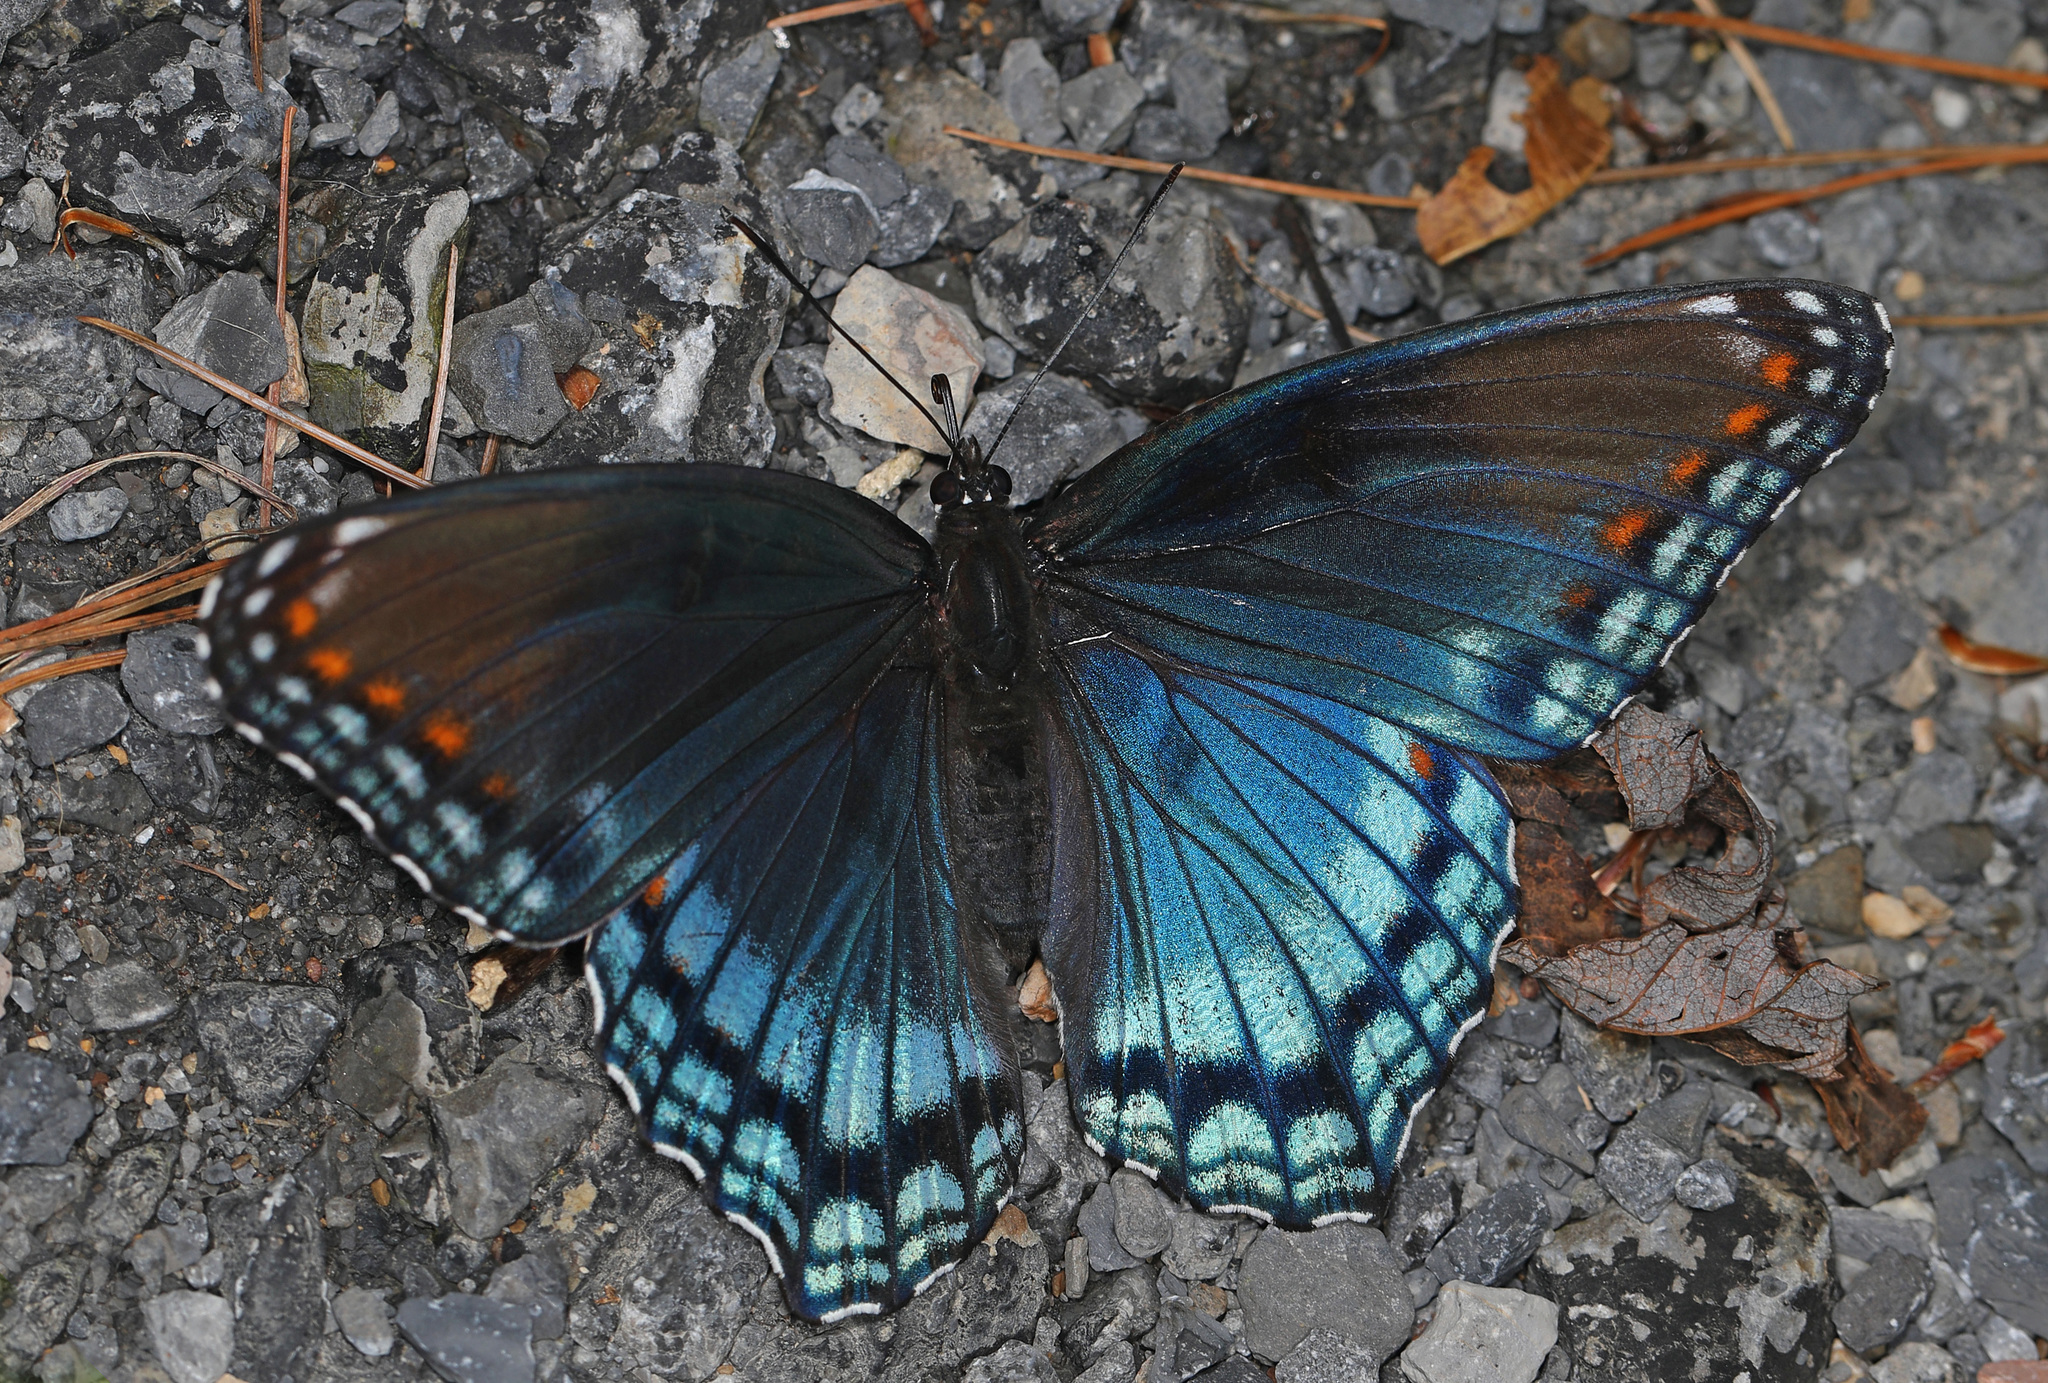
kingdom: Animalia
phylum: Arthropoda
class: Insecta
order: Lepidoptera
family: Nymphalidae
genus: Limenitis
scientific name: Limenitis astyanax
